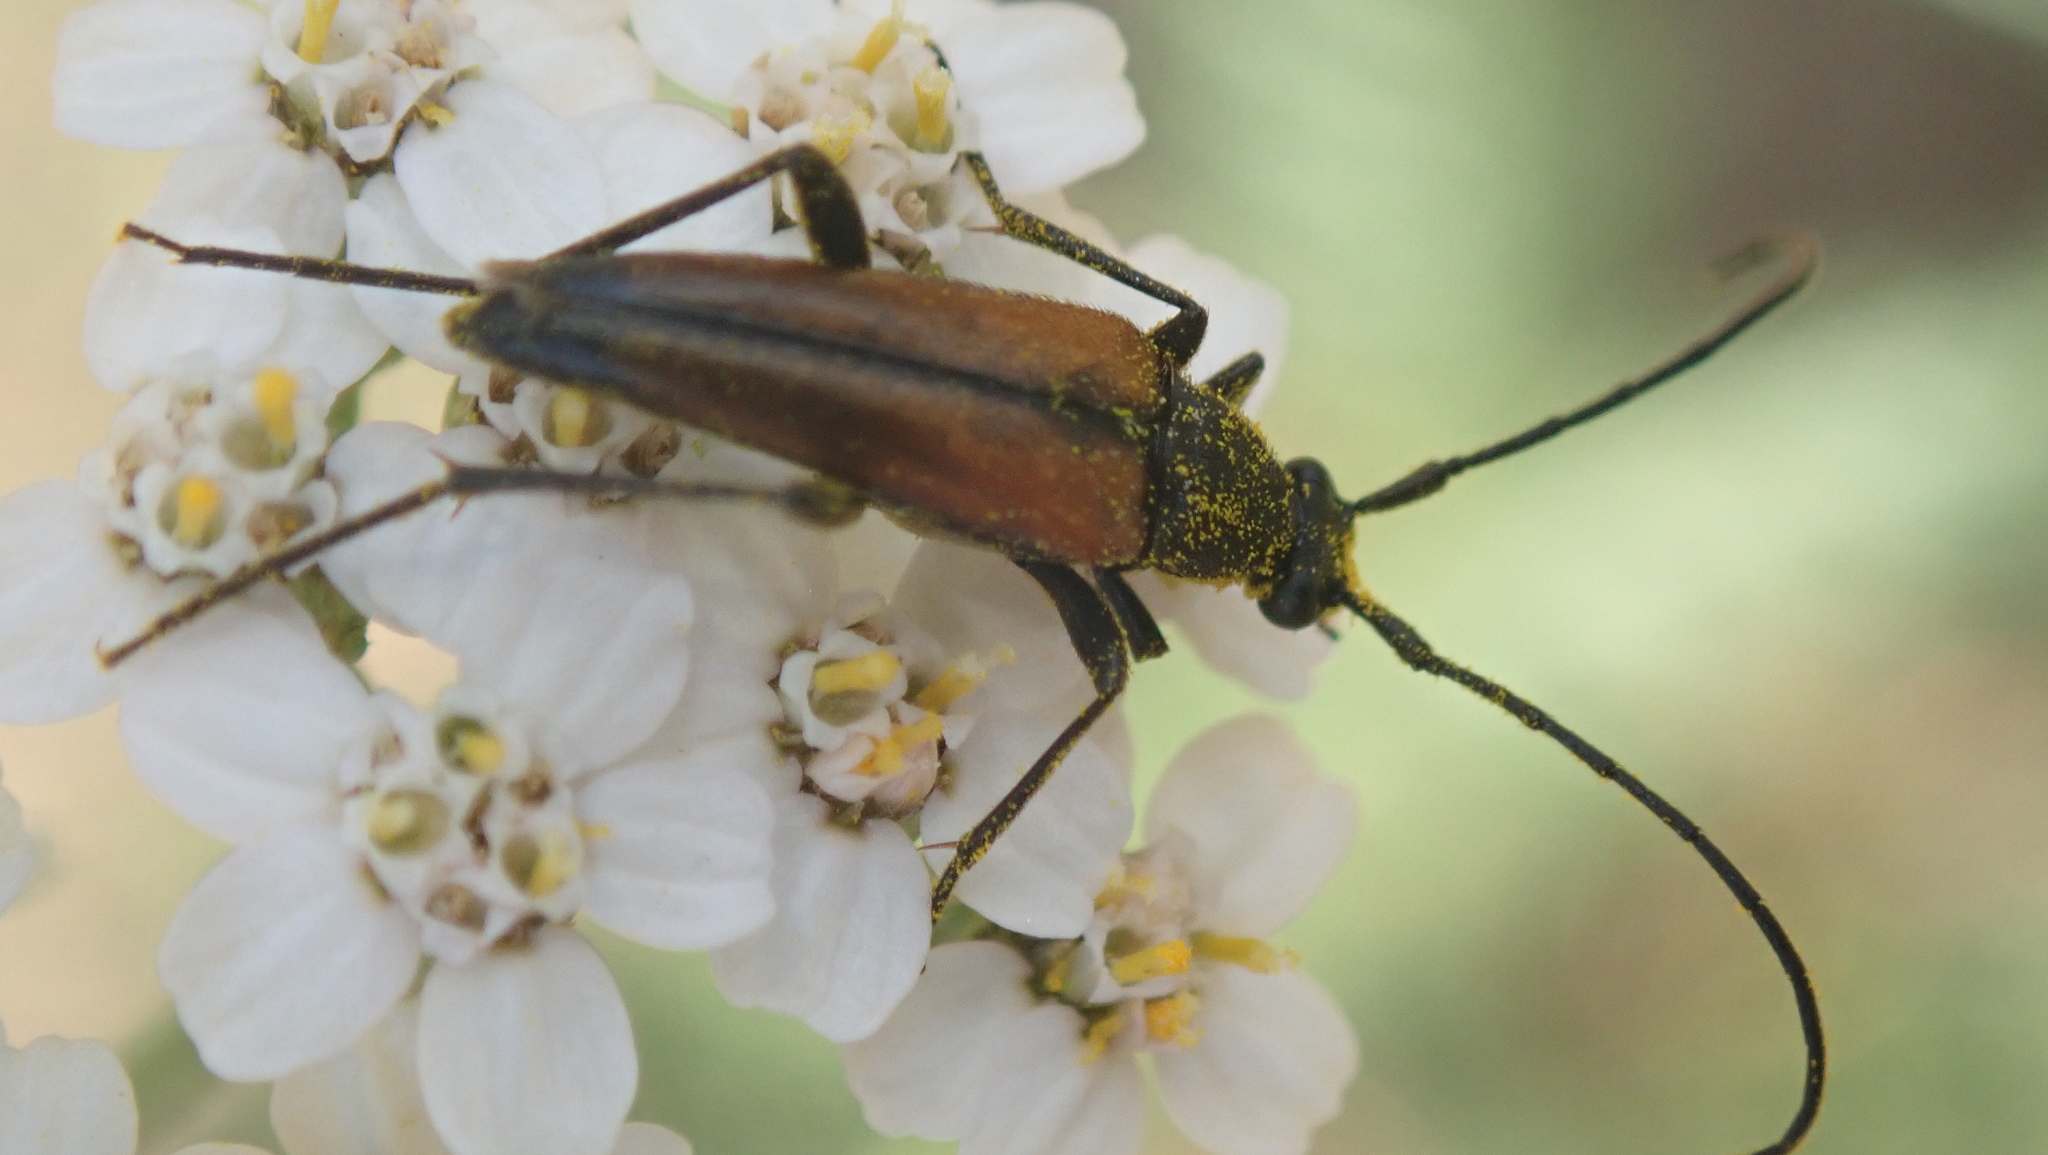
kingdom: Animalia
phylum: Arthropoda
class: Insecta
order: Coleoptera
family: Cerambycidae
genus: Stenurella
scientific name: Stenurella melanura
